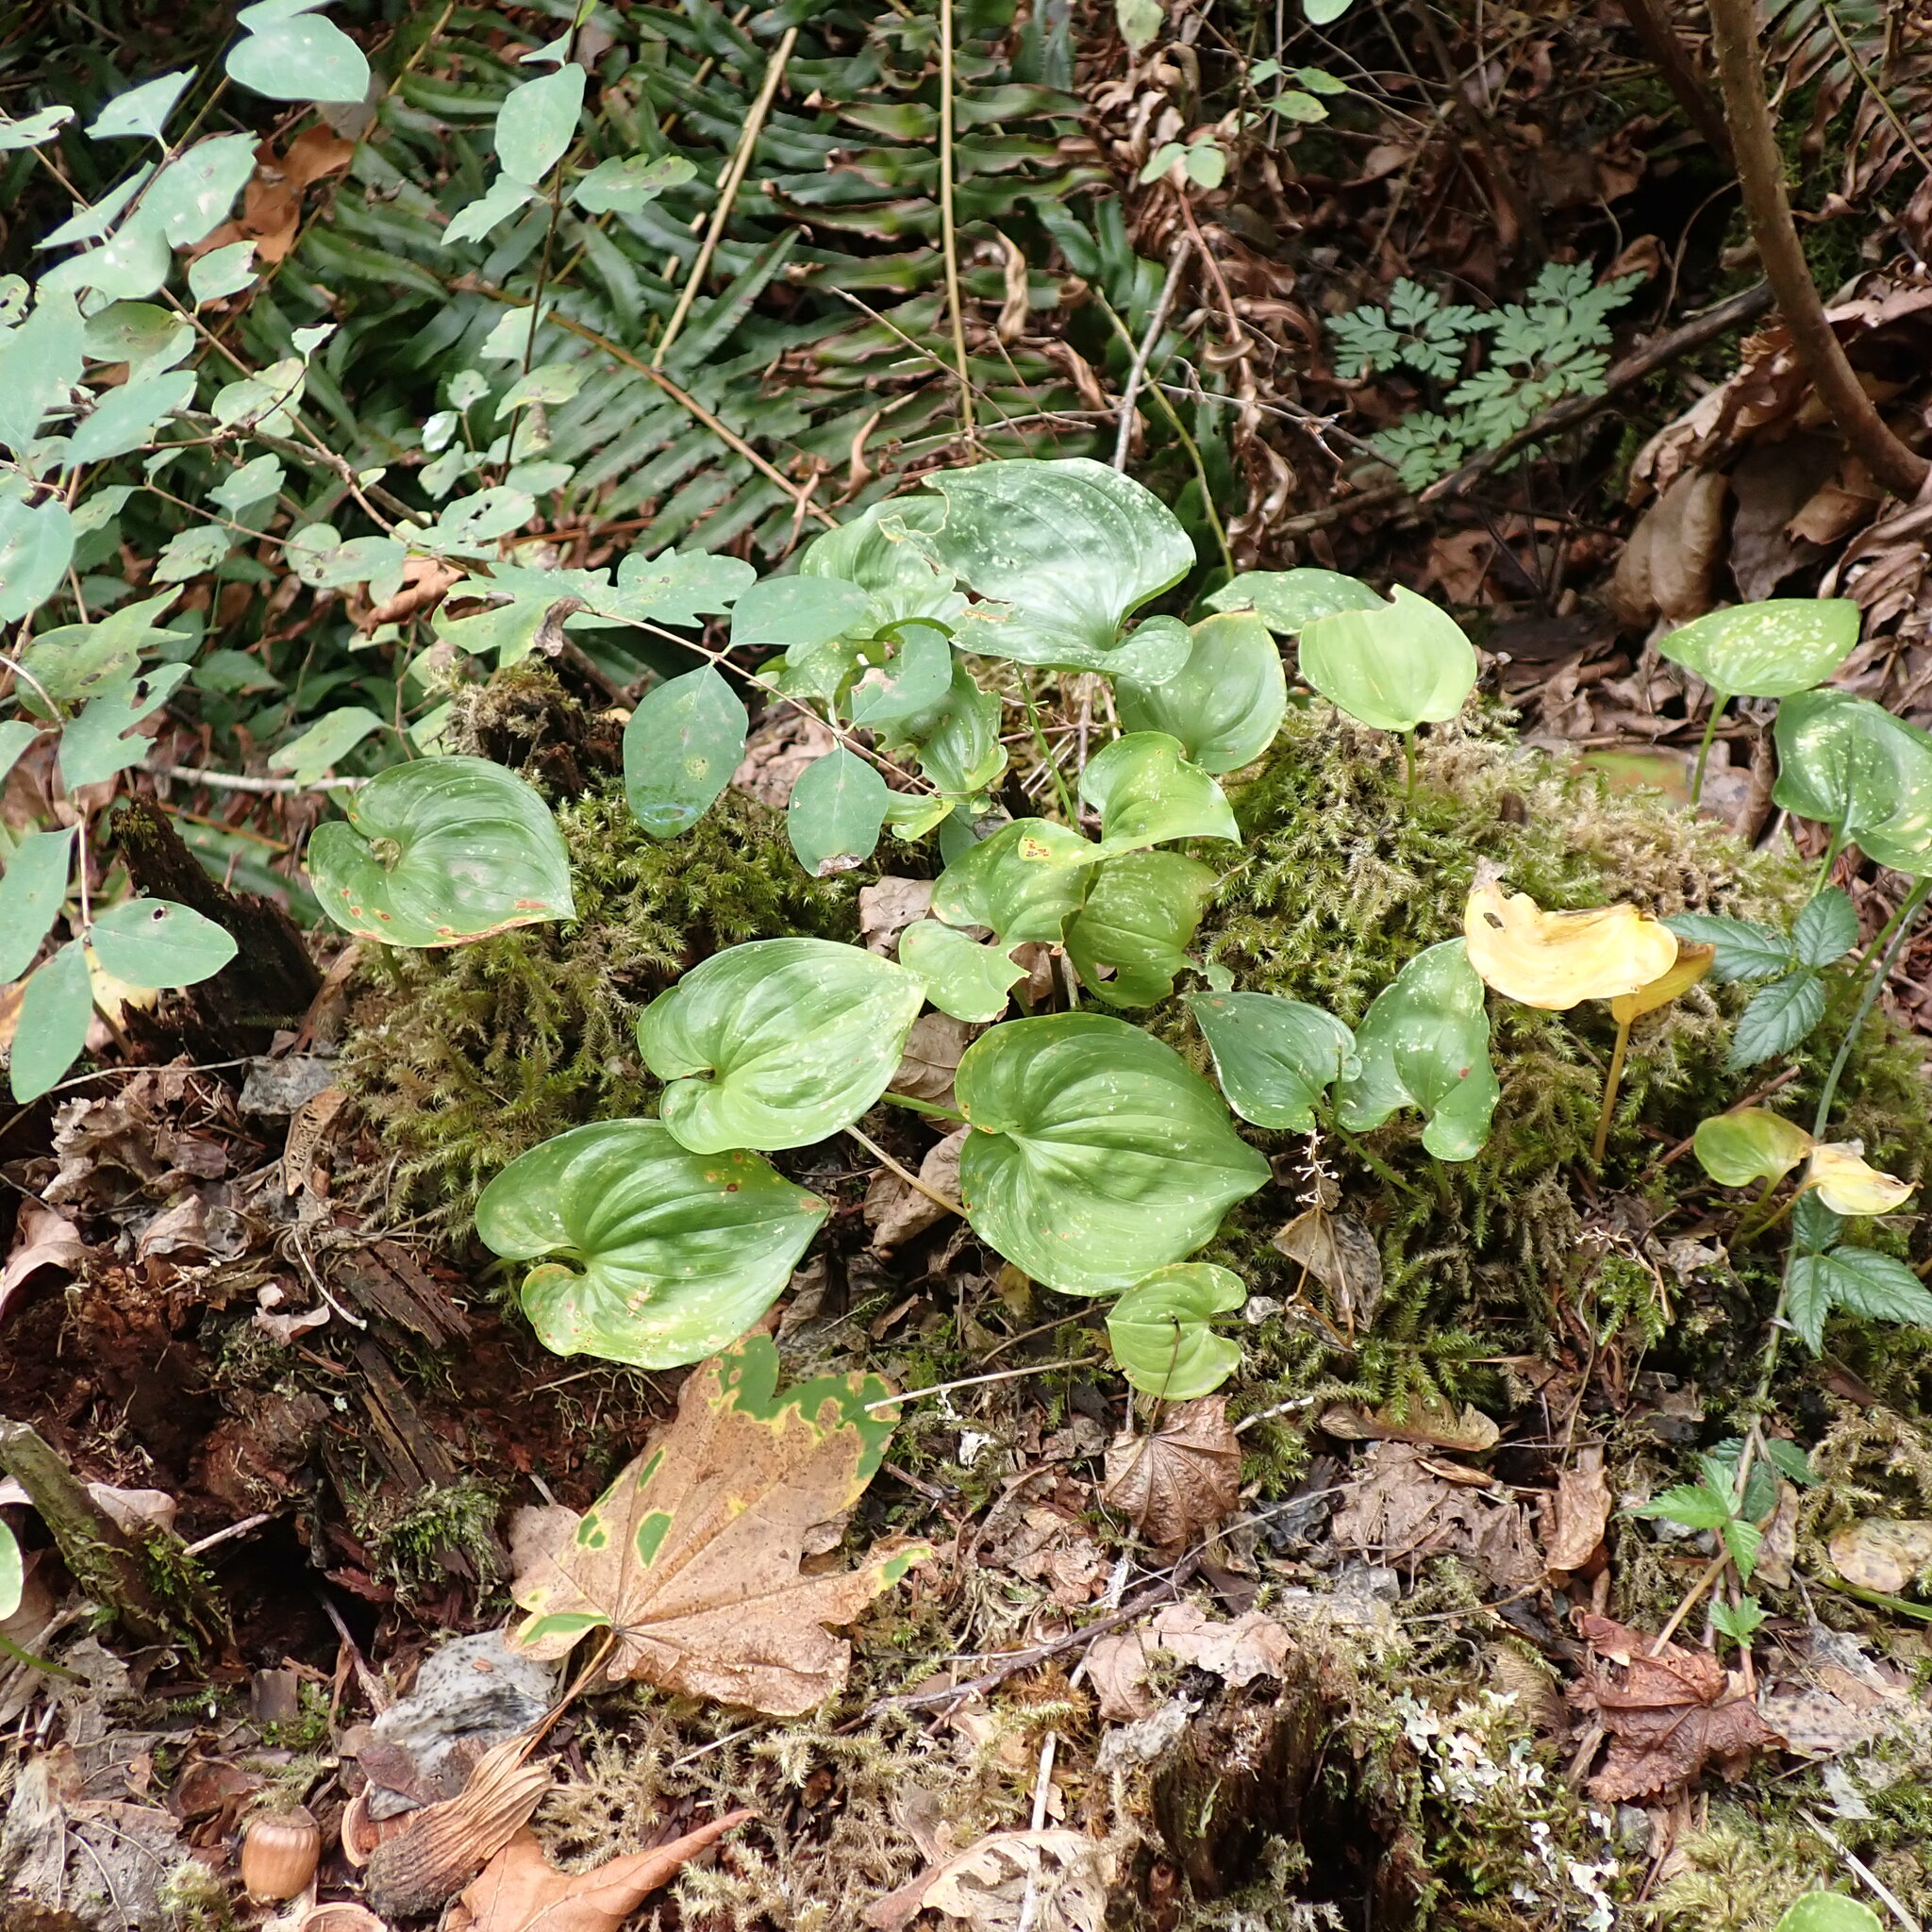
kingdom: Plantae
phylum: Tracheophyta
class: Liliopsida
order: Asparagales
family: Asparagaceae
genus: Maianthemum
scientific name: Maianthemum dilatatum
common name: False lily-of-the-valley
